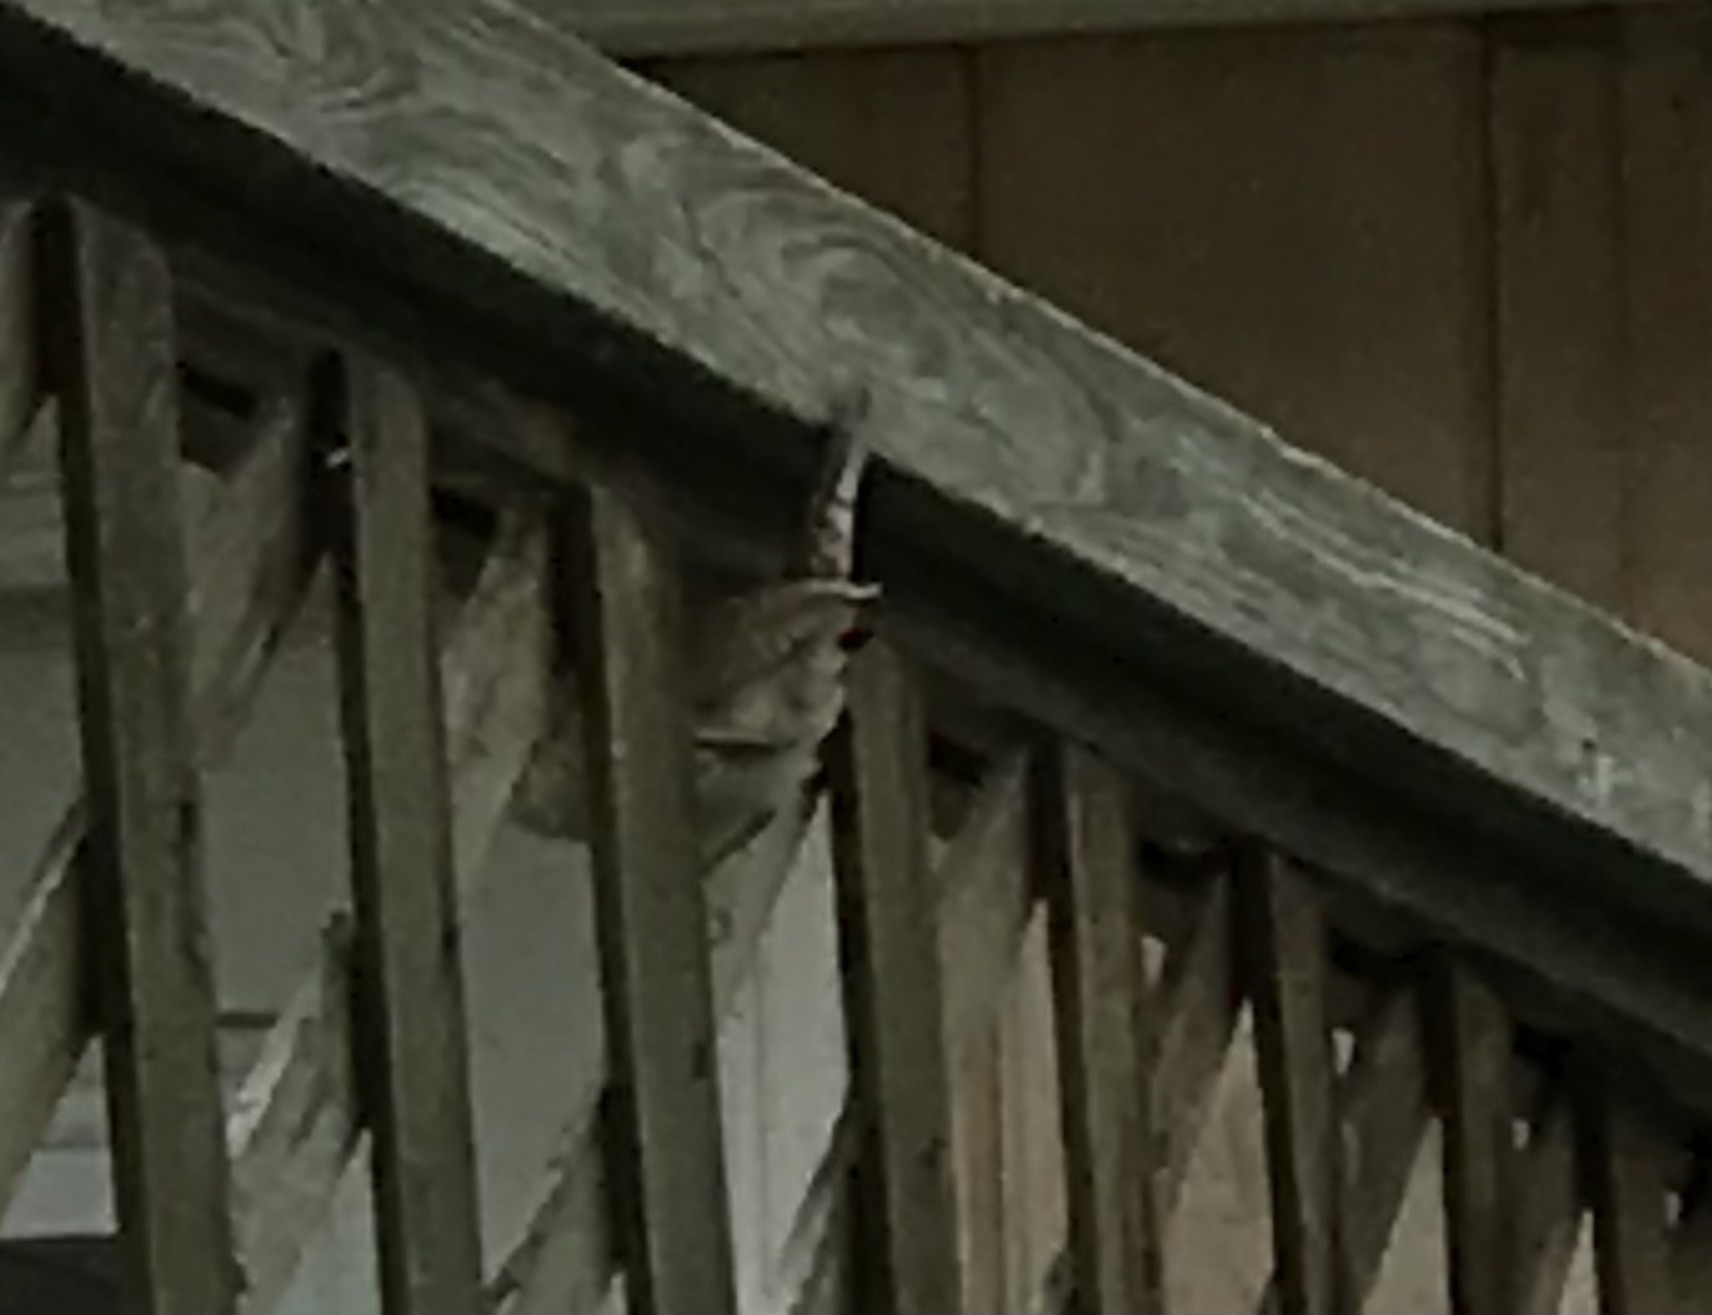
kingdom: Animalia
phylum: Chordata
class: Aves
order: Passeriformes
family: Troglodytidae
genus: Troglodytes
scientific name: Troglodytes aedon
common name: House wren
